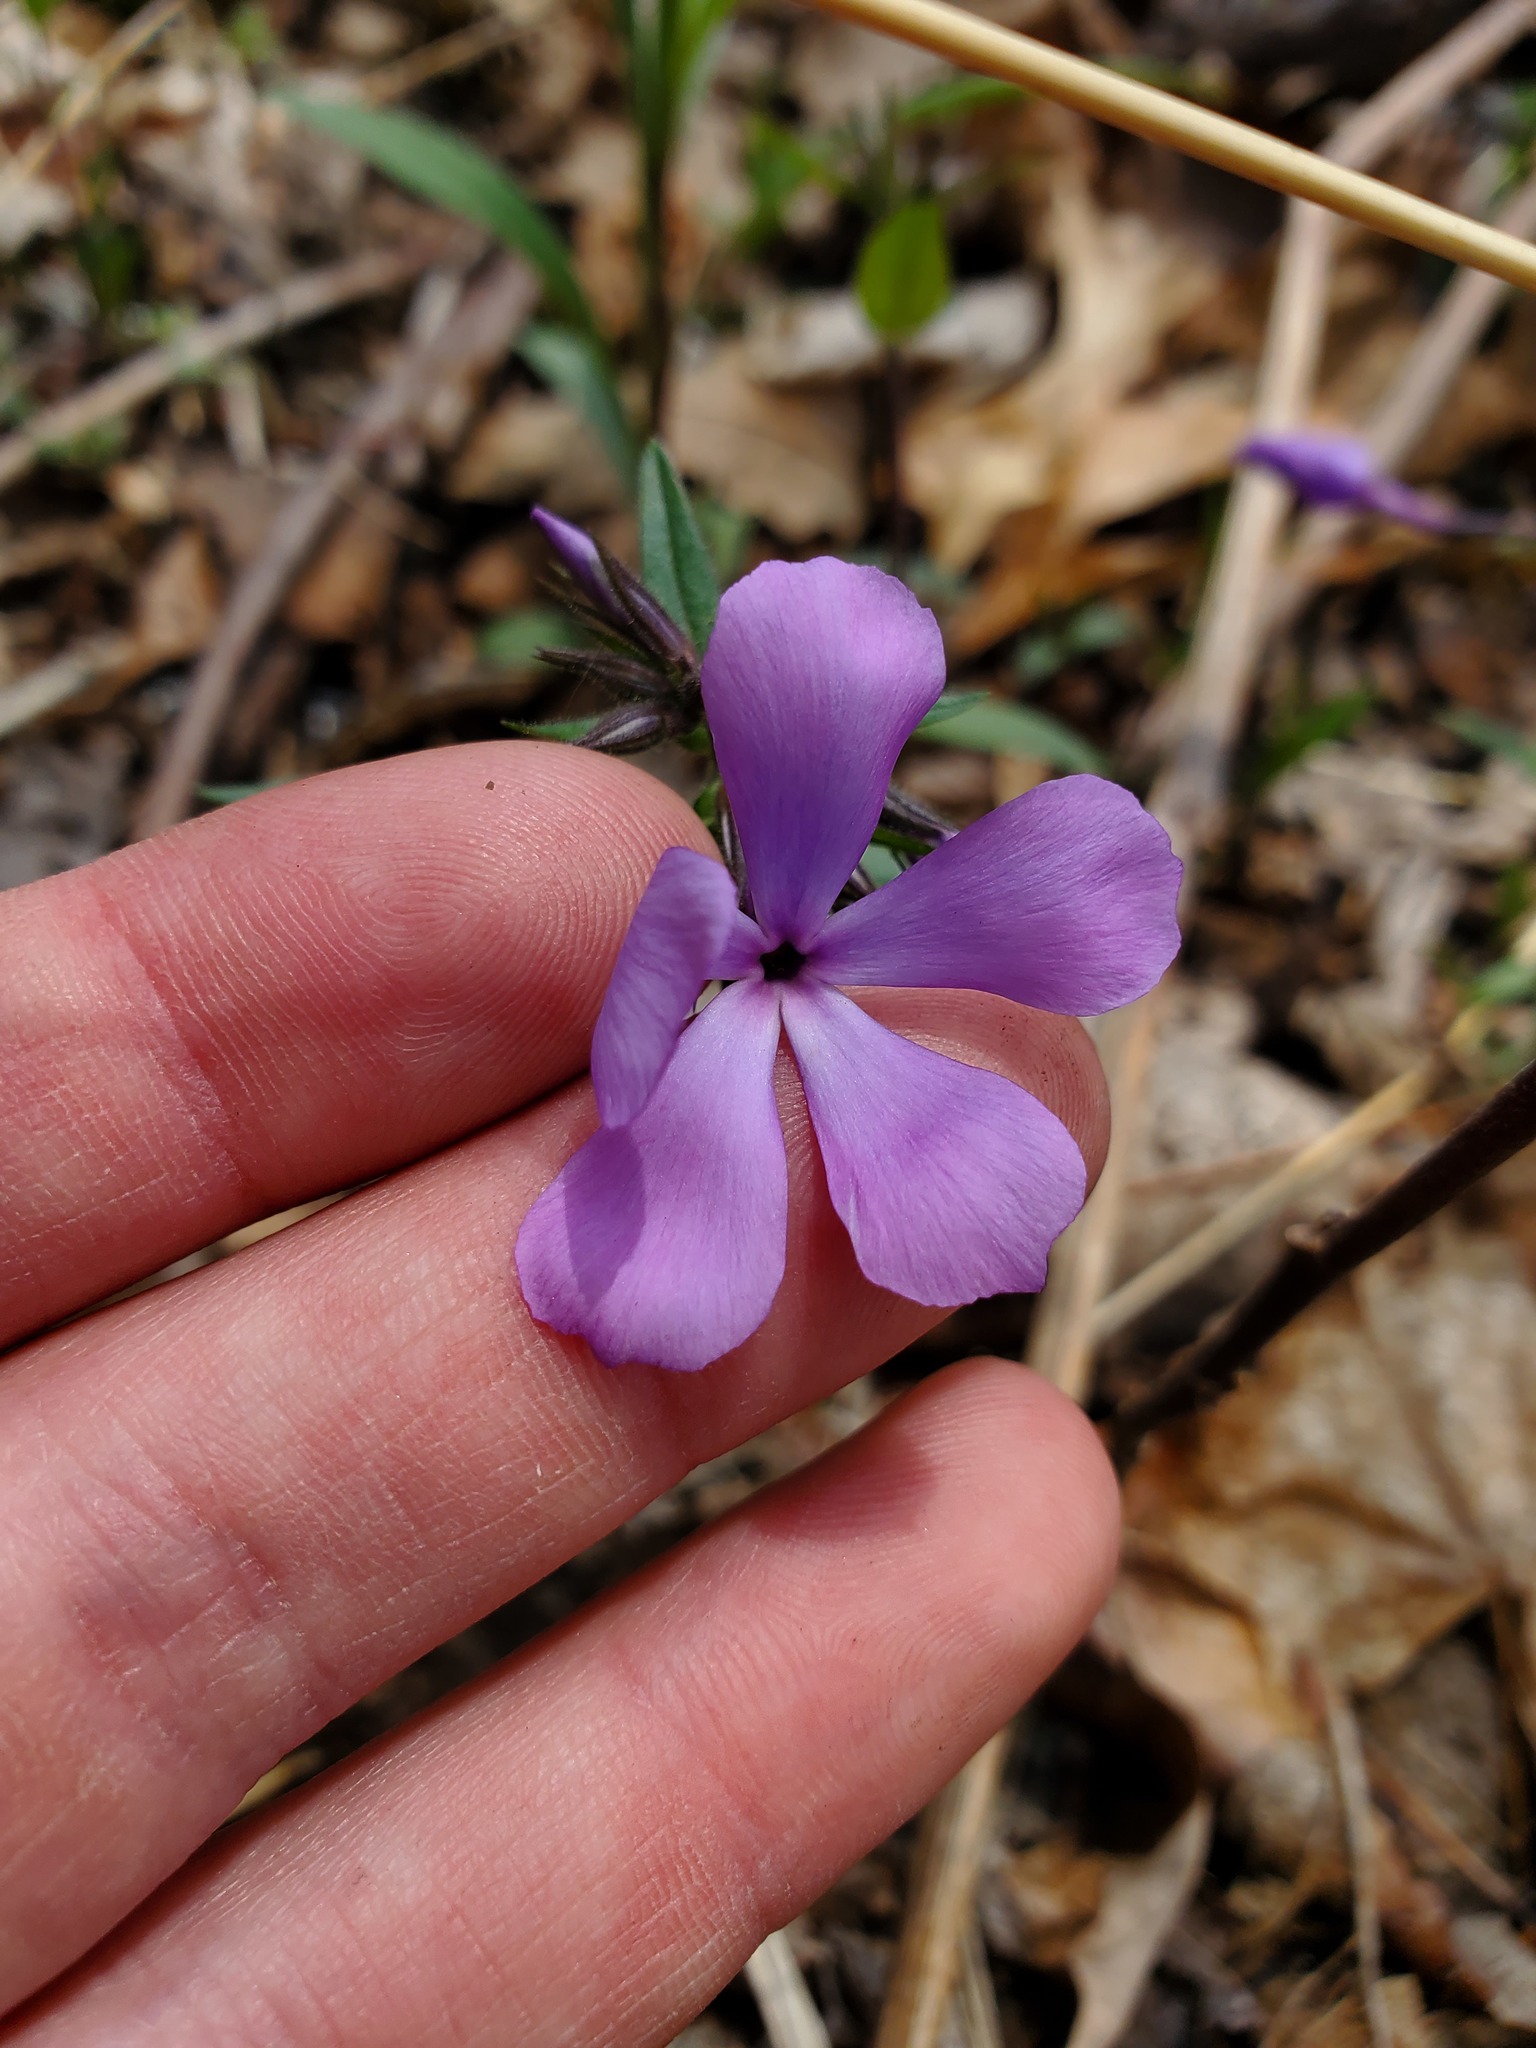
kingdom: Plantae
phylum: Tracheophyta
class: Magnoliopsida
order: Ericales
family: Polemoniaceae
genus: Phlox
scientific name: Phlox divaricata
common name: Blue phlox
